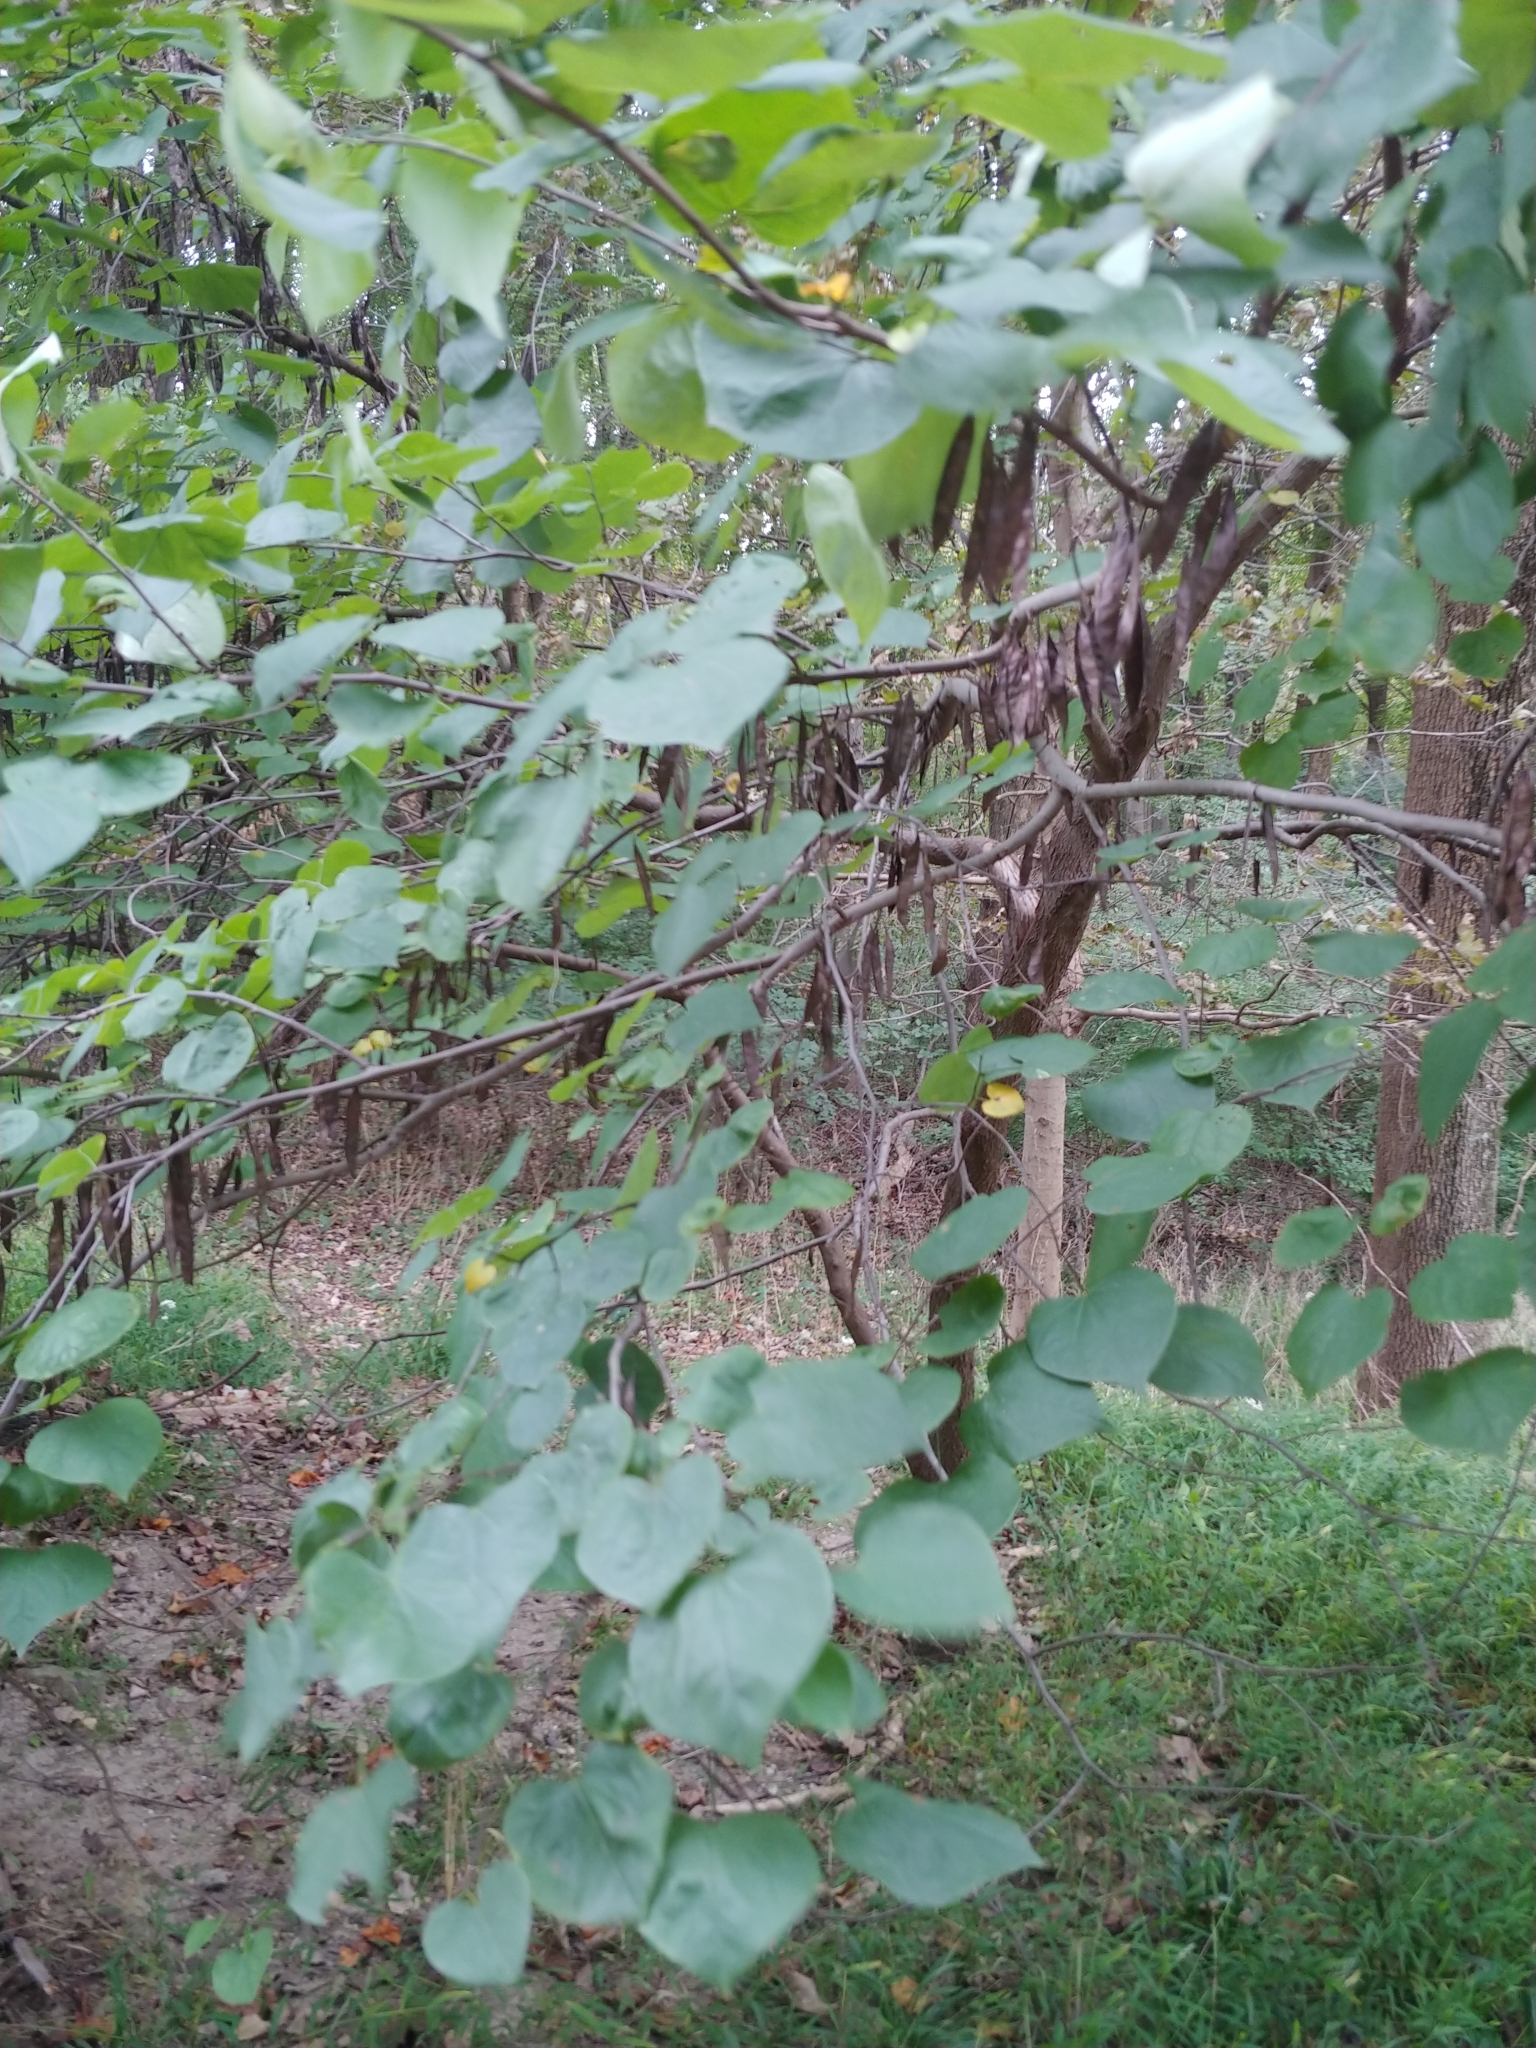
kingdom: Plantae
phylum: Tracheophyta
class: Magnoliopsida
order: Fabales
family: Fabaceae
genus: Cercis
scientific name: Cercis canadensis
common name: Eastern redbud
